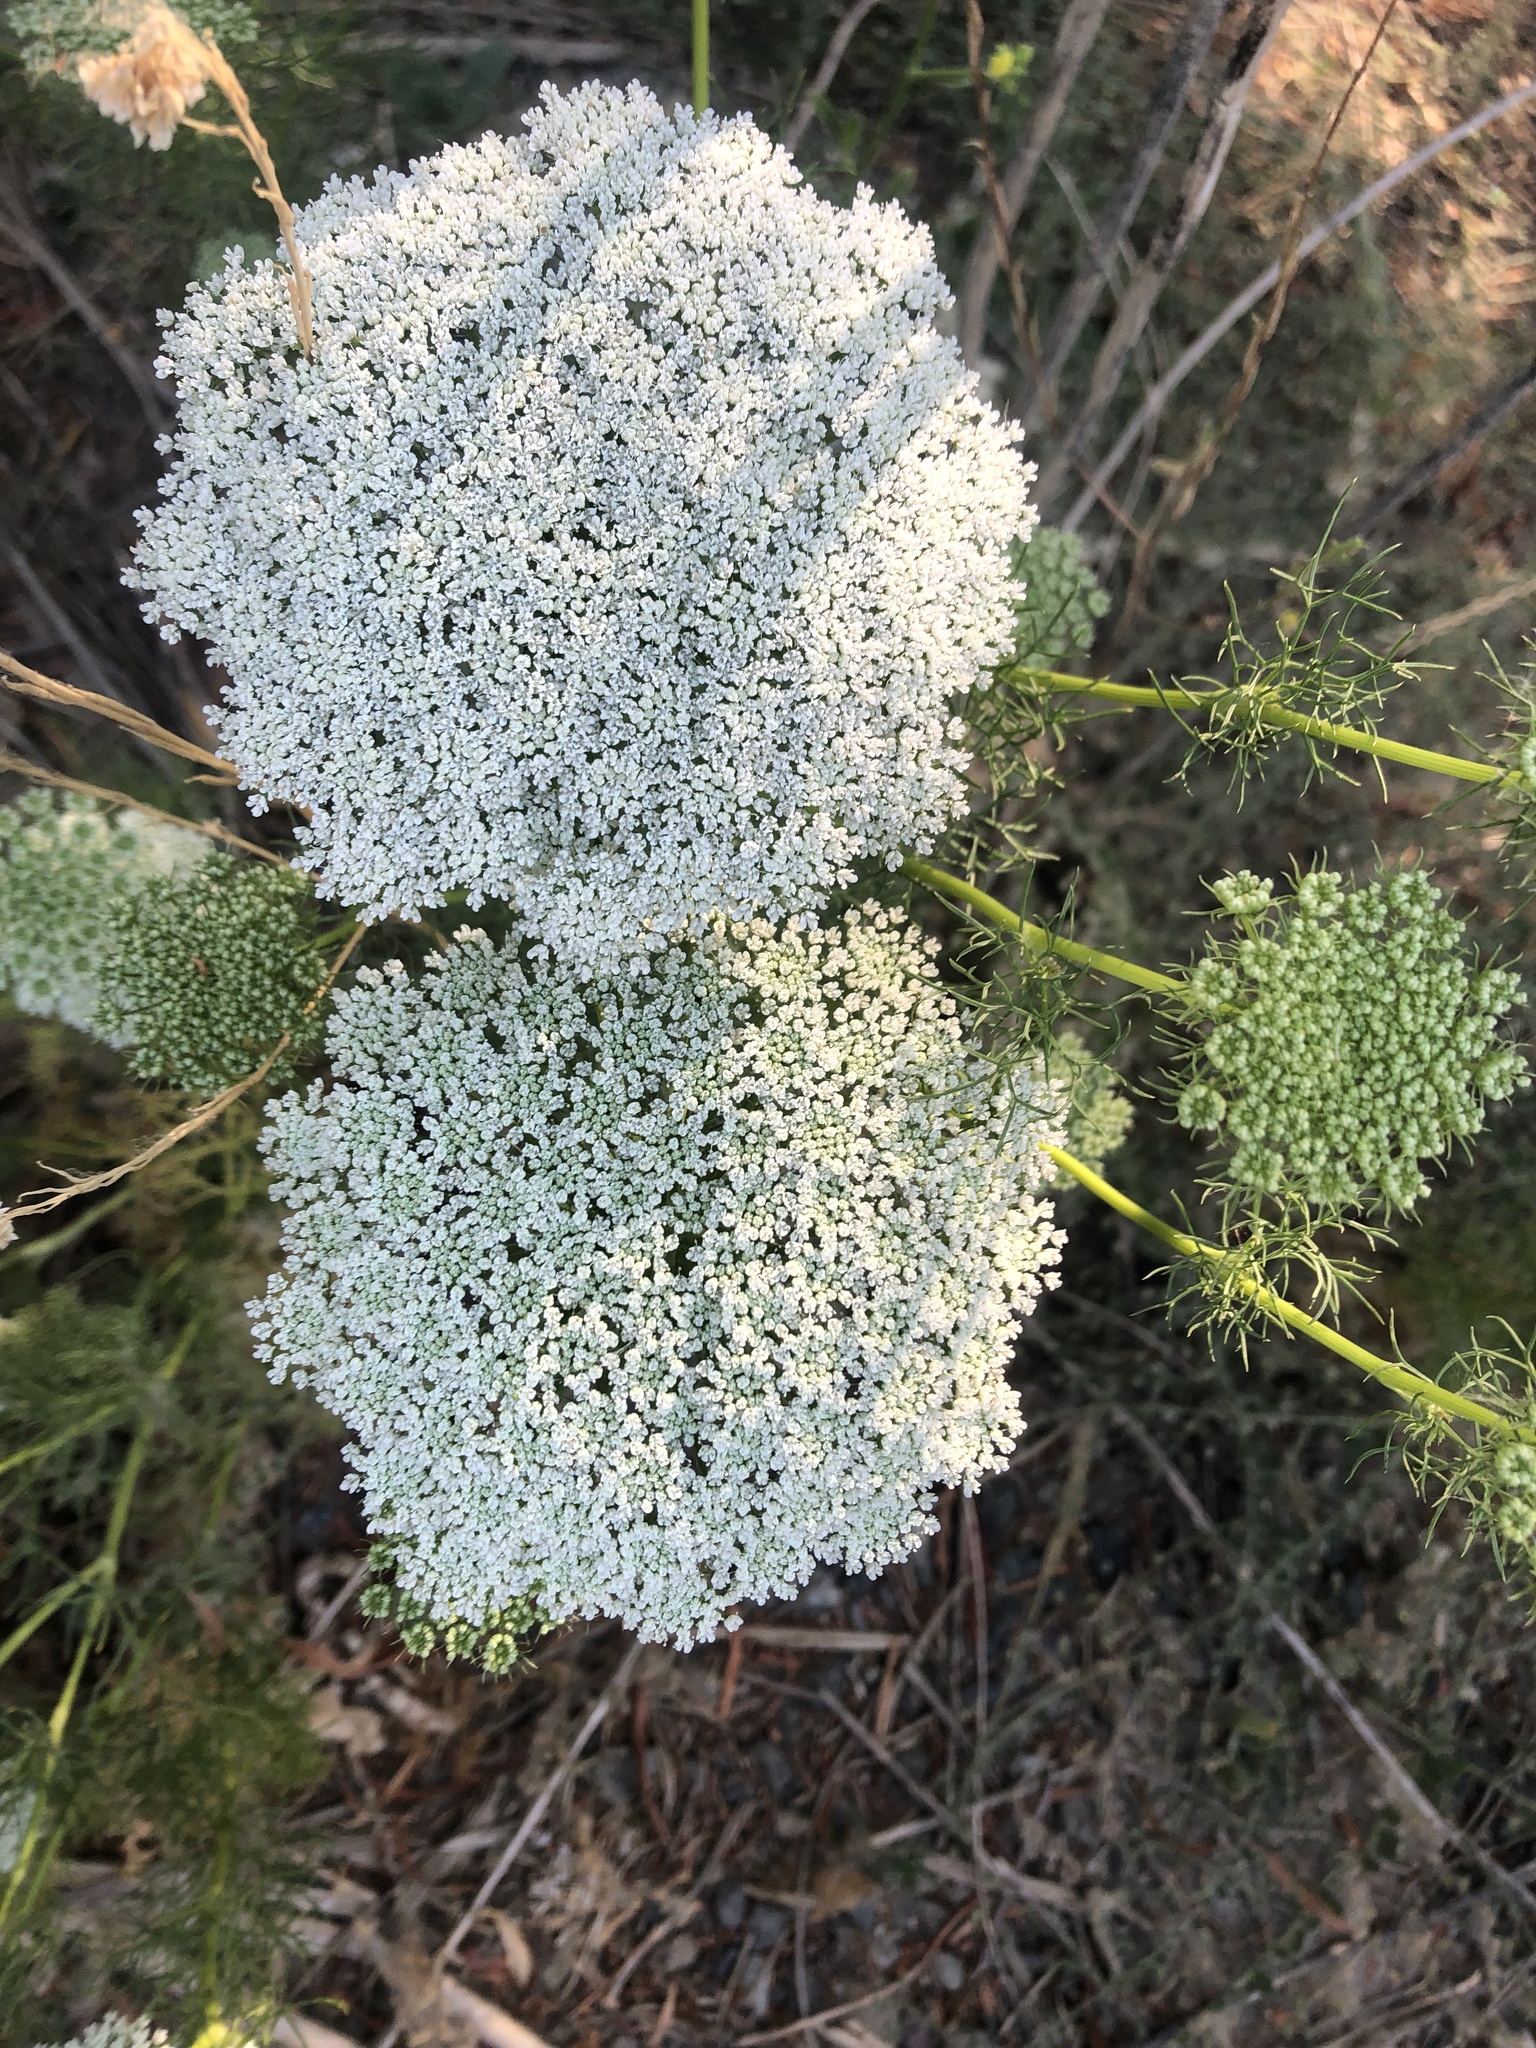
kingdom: Plantae
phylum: Tracheophyta
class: Magnoliopsida
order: Apiales
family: Apiaceae
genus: Visnaga
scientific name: Visnaga daucoides
